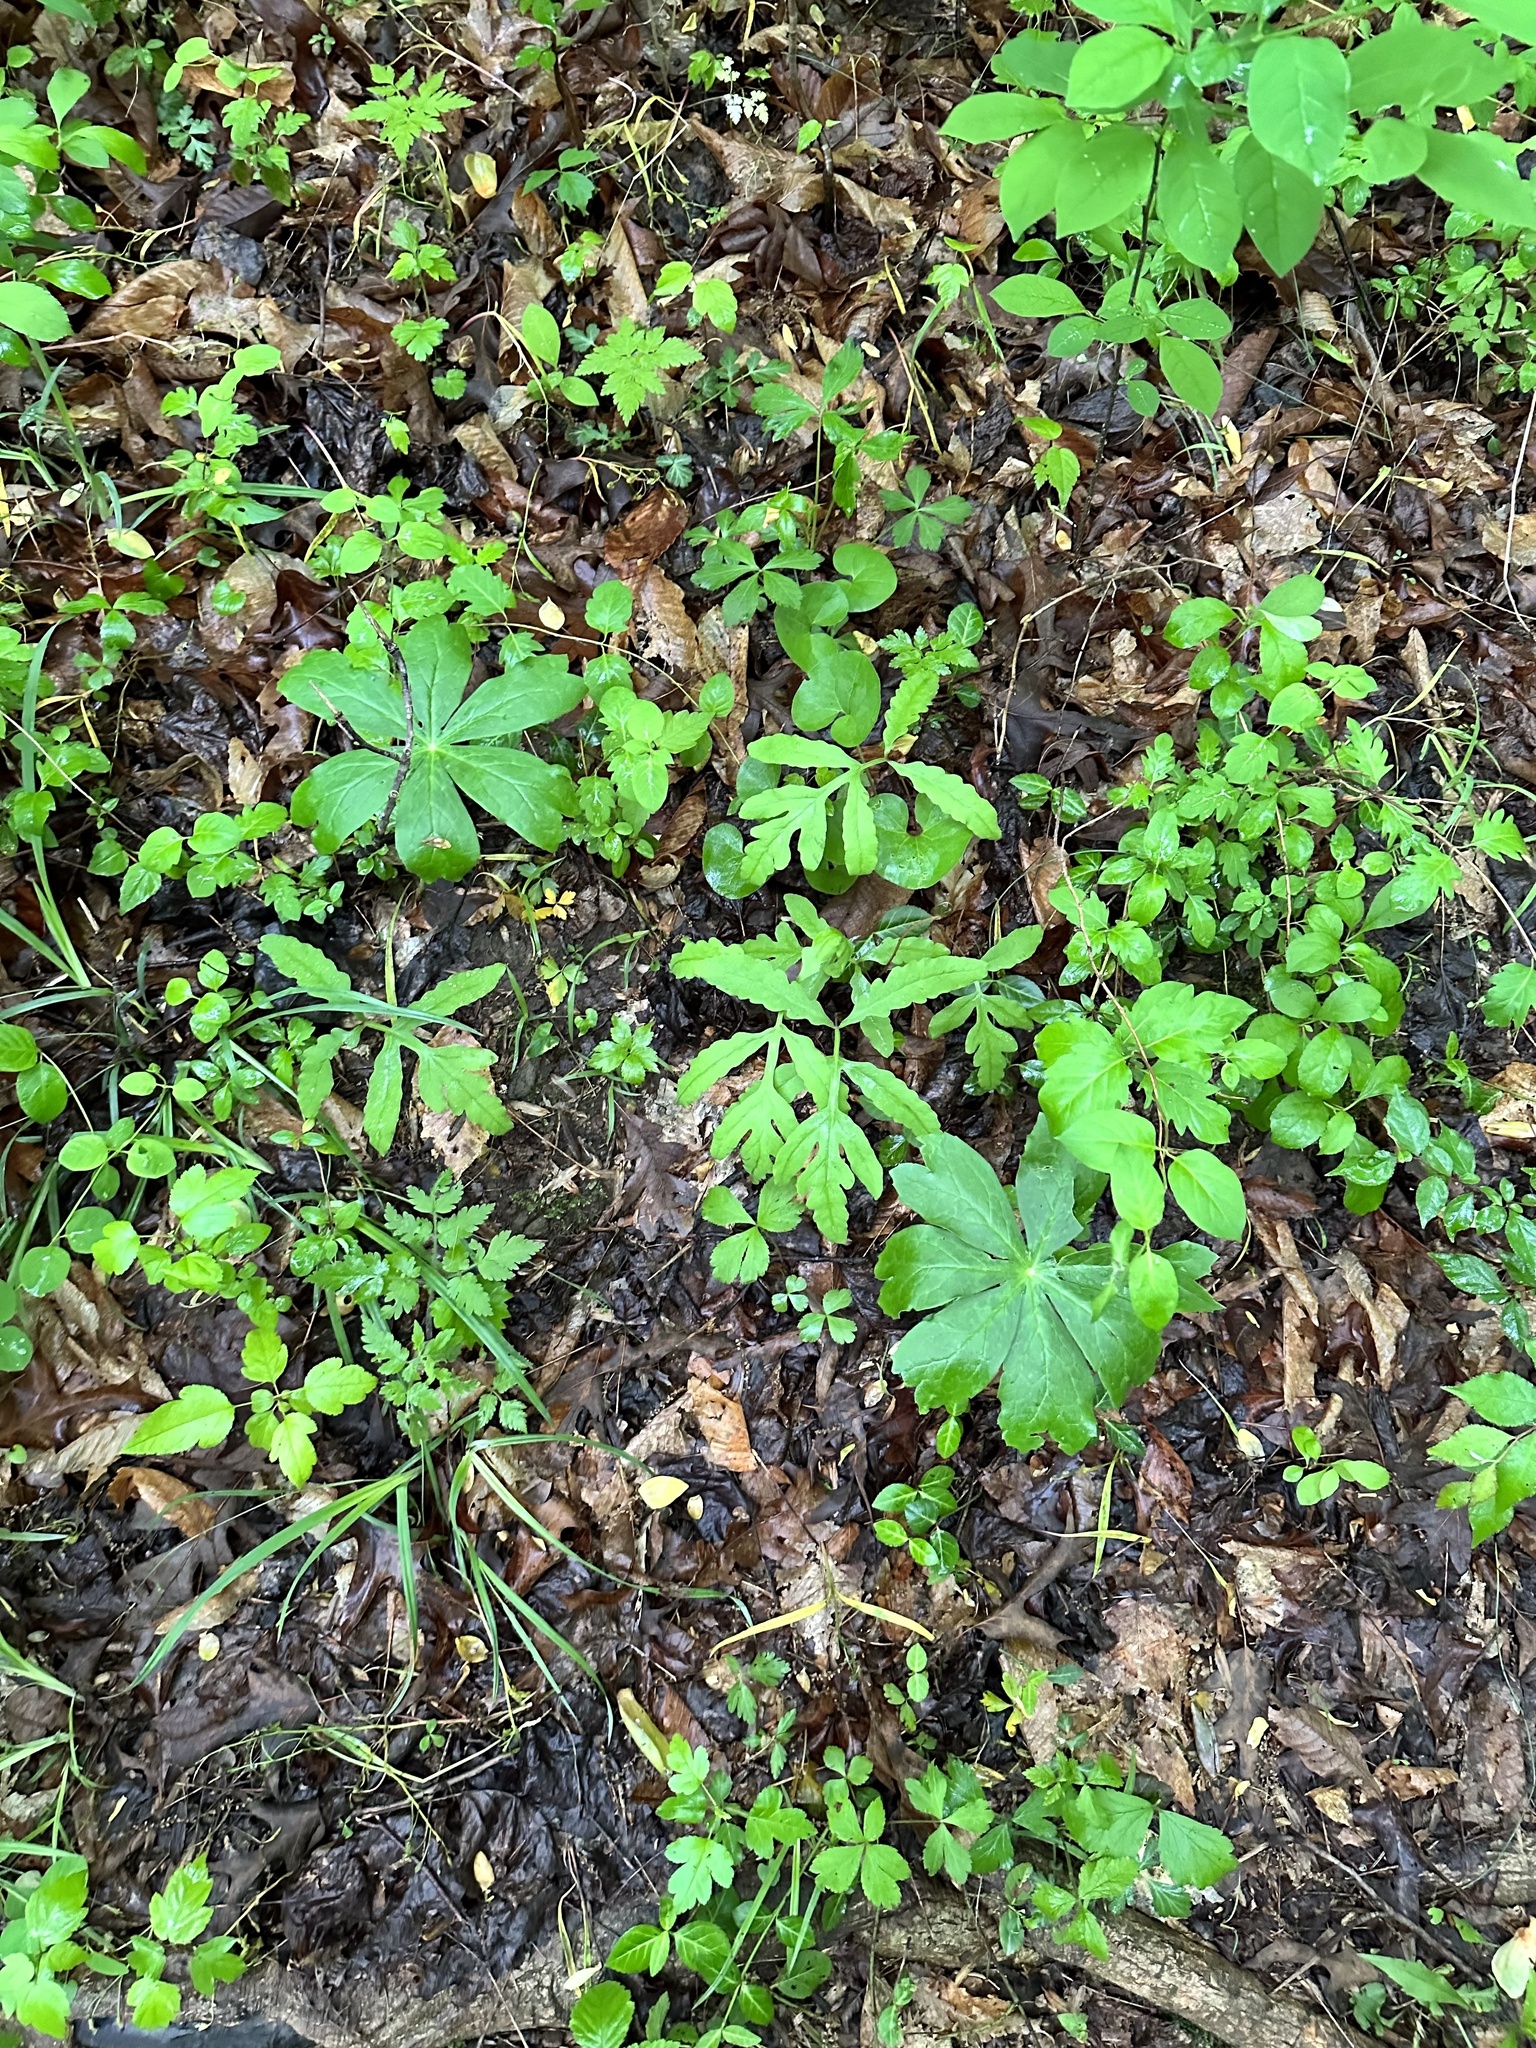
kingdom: Plantae
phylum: Tracheophyta
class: Polypodiopsida
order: Polypodiales
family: Onocleaceae
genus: Onoclea
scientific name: Onoclea sensibilis
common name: Sensitive fern
